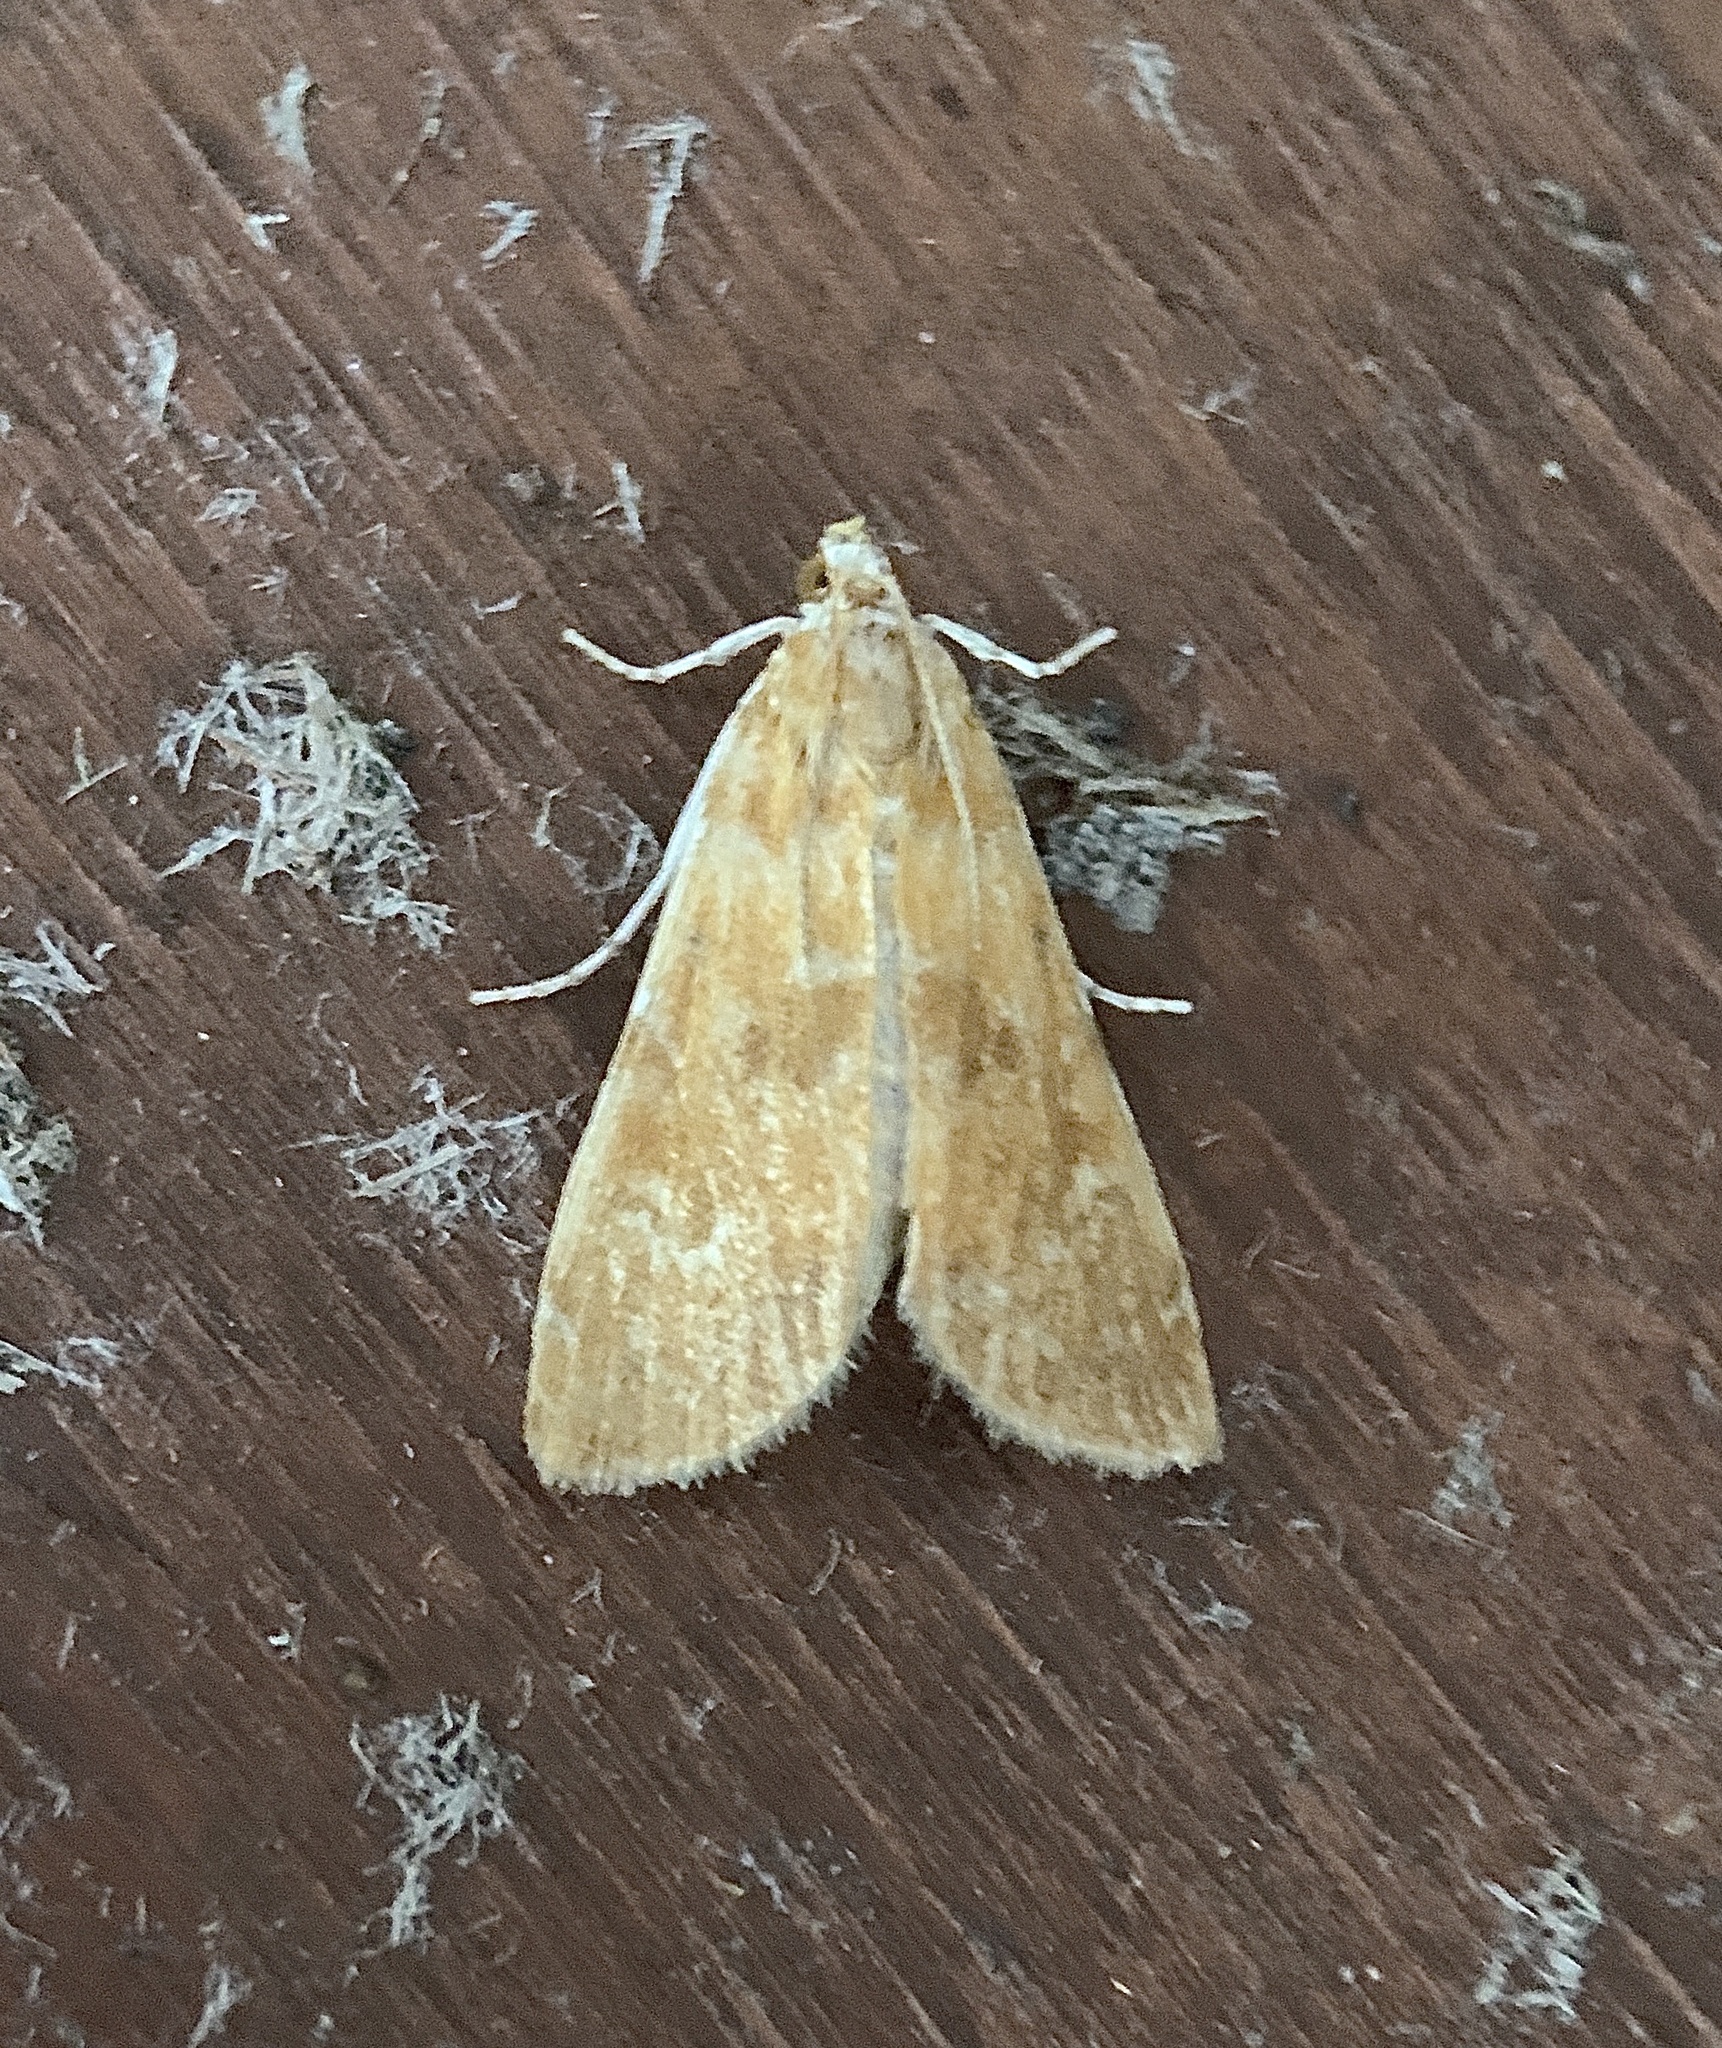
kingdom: Animalia
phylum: Arthropoda
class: Insecta
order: Lepidoptera
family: Crambidae
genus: Elophila
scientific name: Elophila gyralis
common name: Waterlily borer moth
